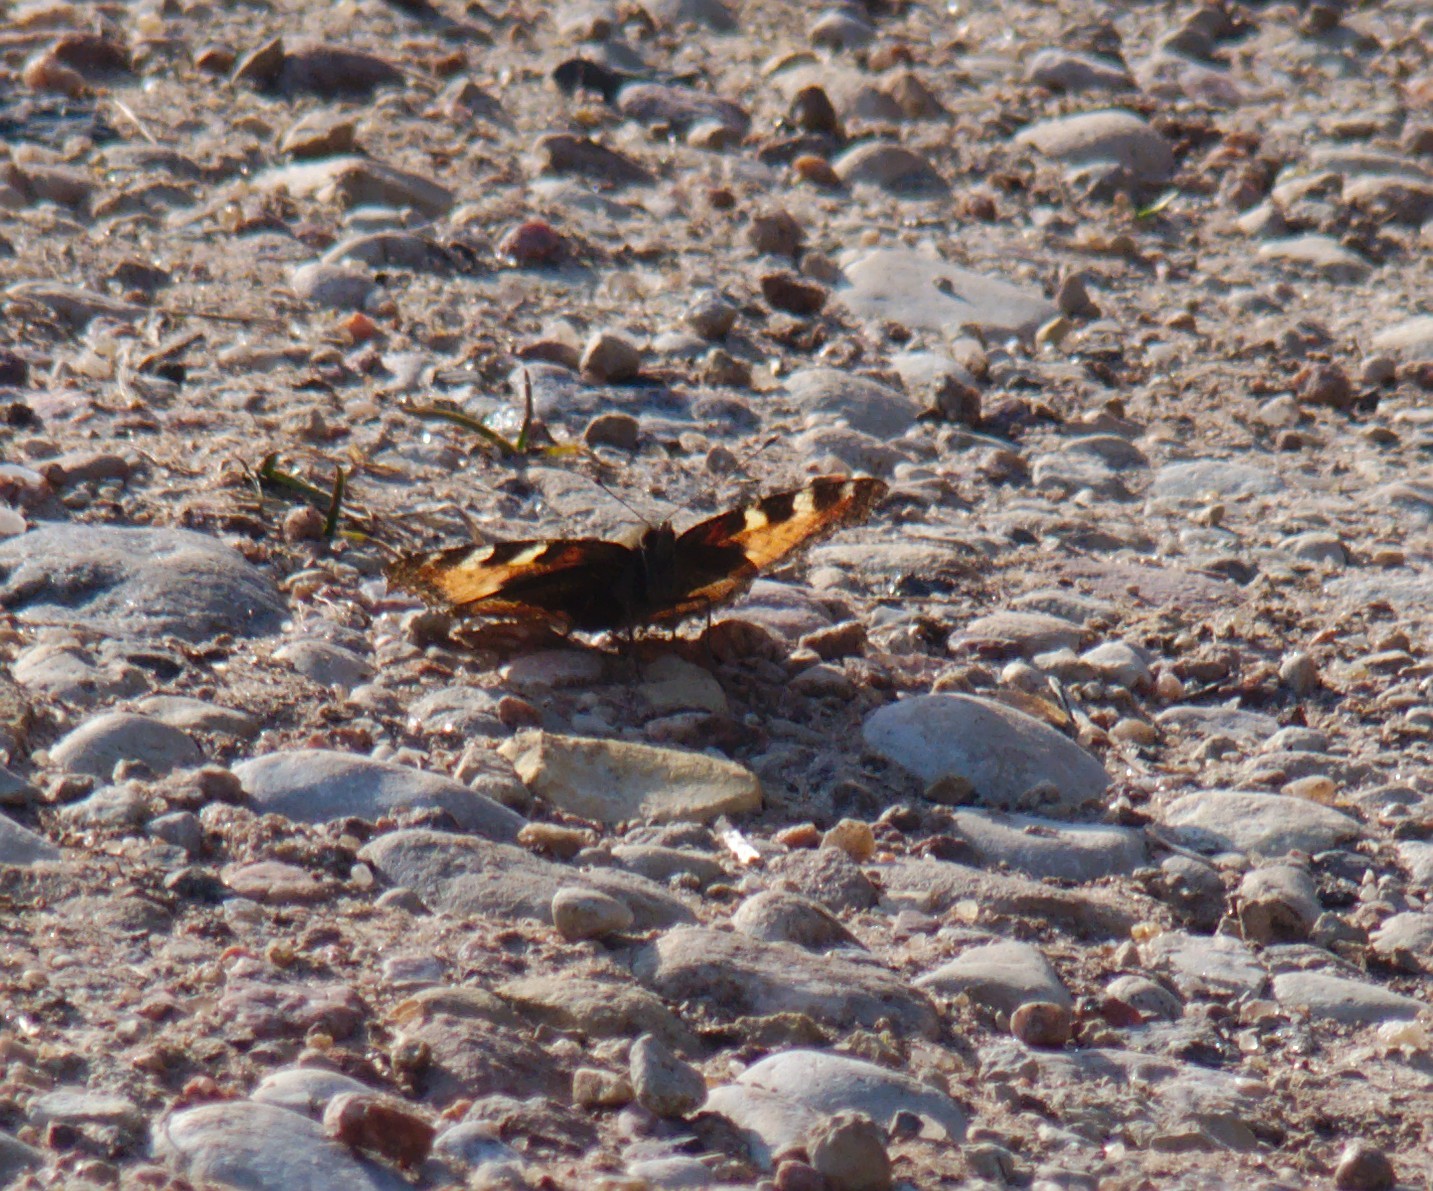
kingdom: Animalia
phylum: Arthropoda
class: Insecta
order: Lepidoptera
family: Nymphalidae
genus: Aglais
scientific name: Aglais urticae
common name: Small tortoiseshell
